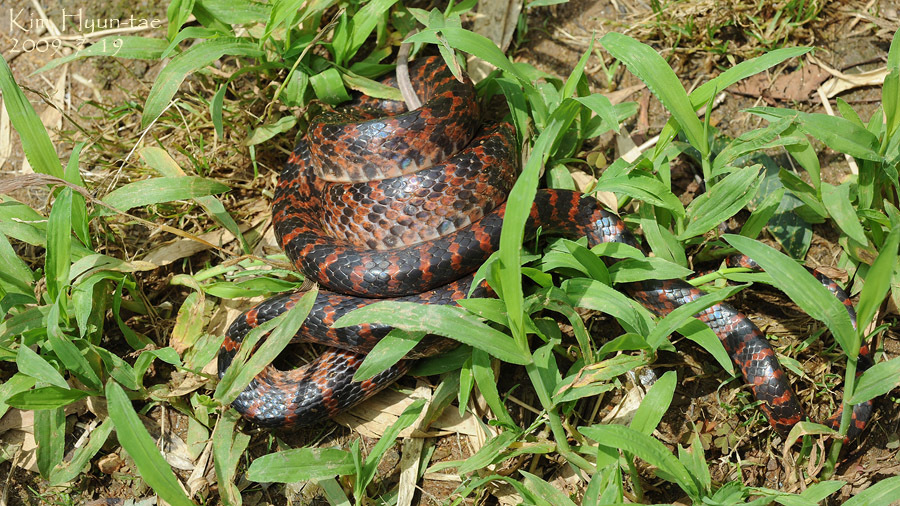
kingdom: Animalia
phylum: Chordata
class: Squamata
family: Colubridae
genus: Lycodon
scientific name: Lycodon rufozonatus
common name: Red-banded snake
